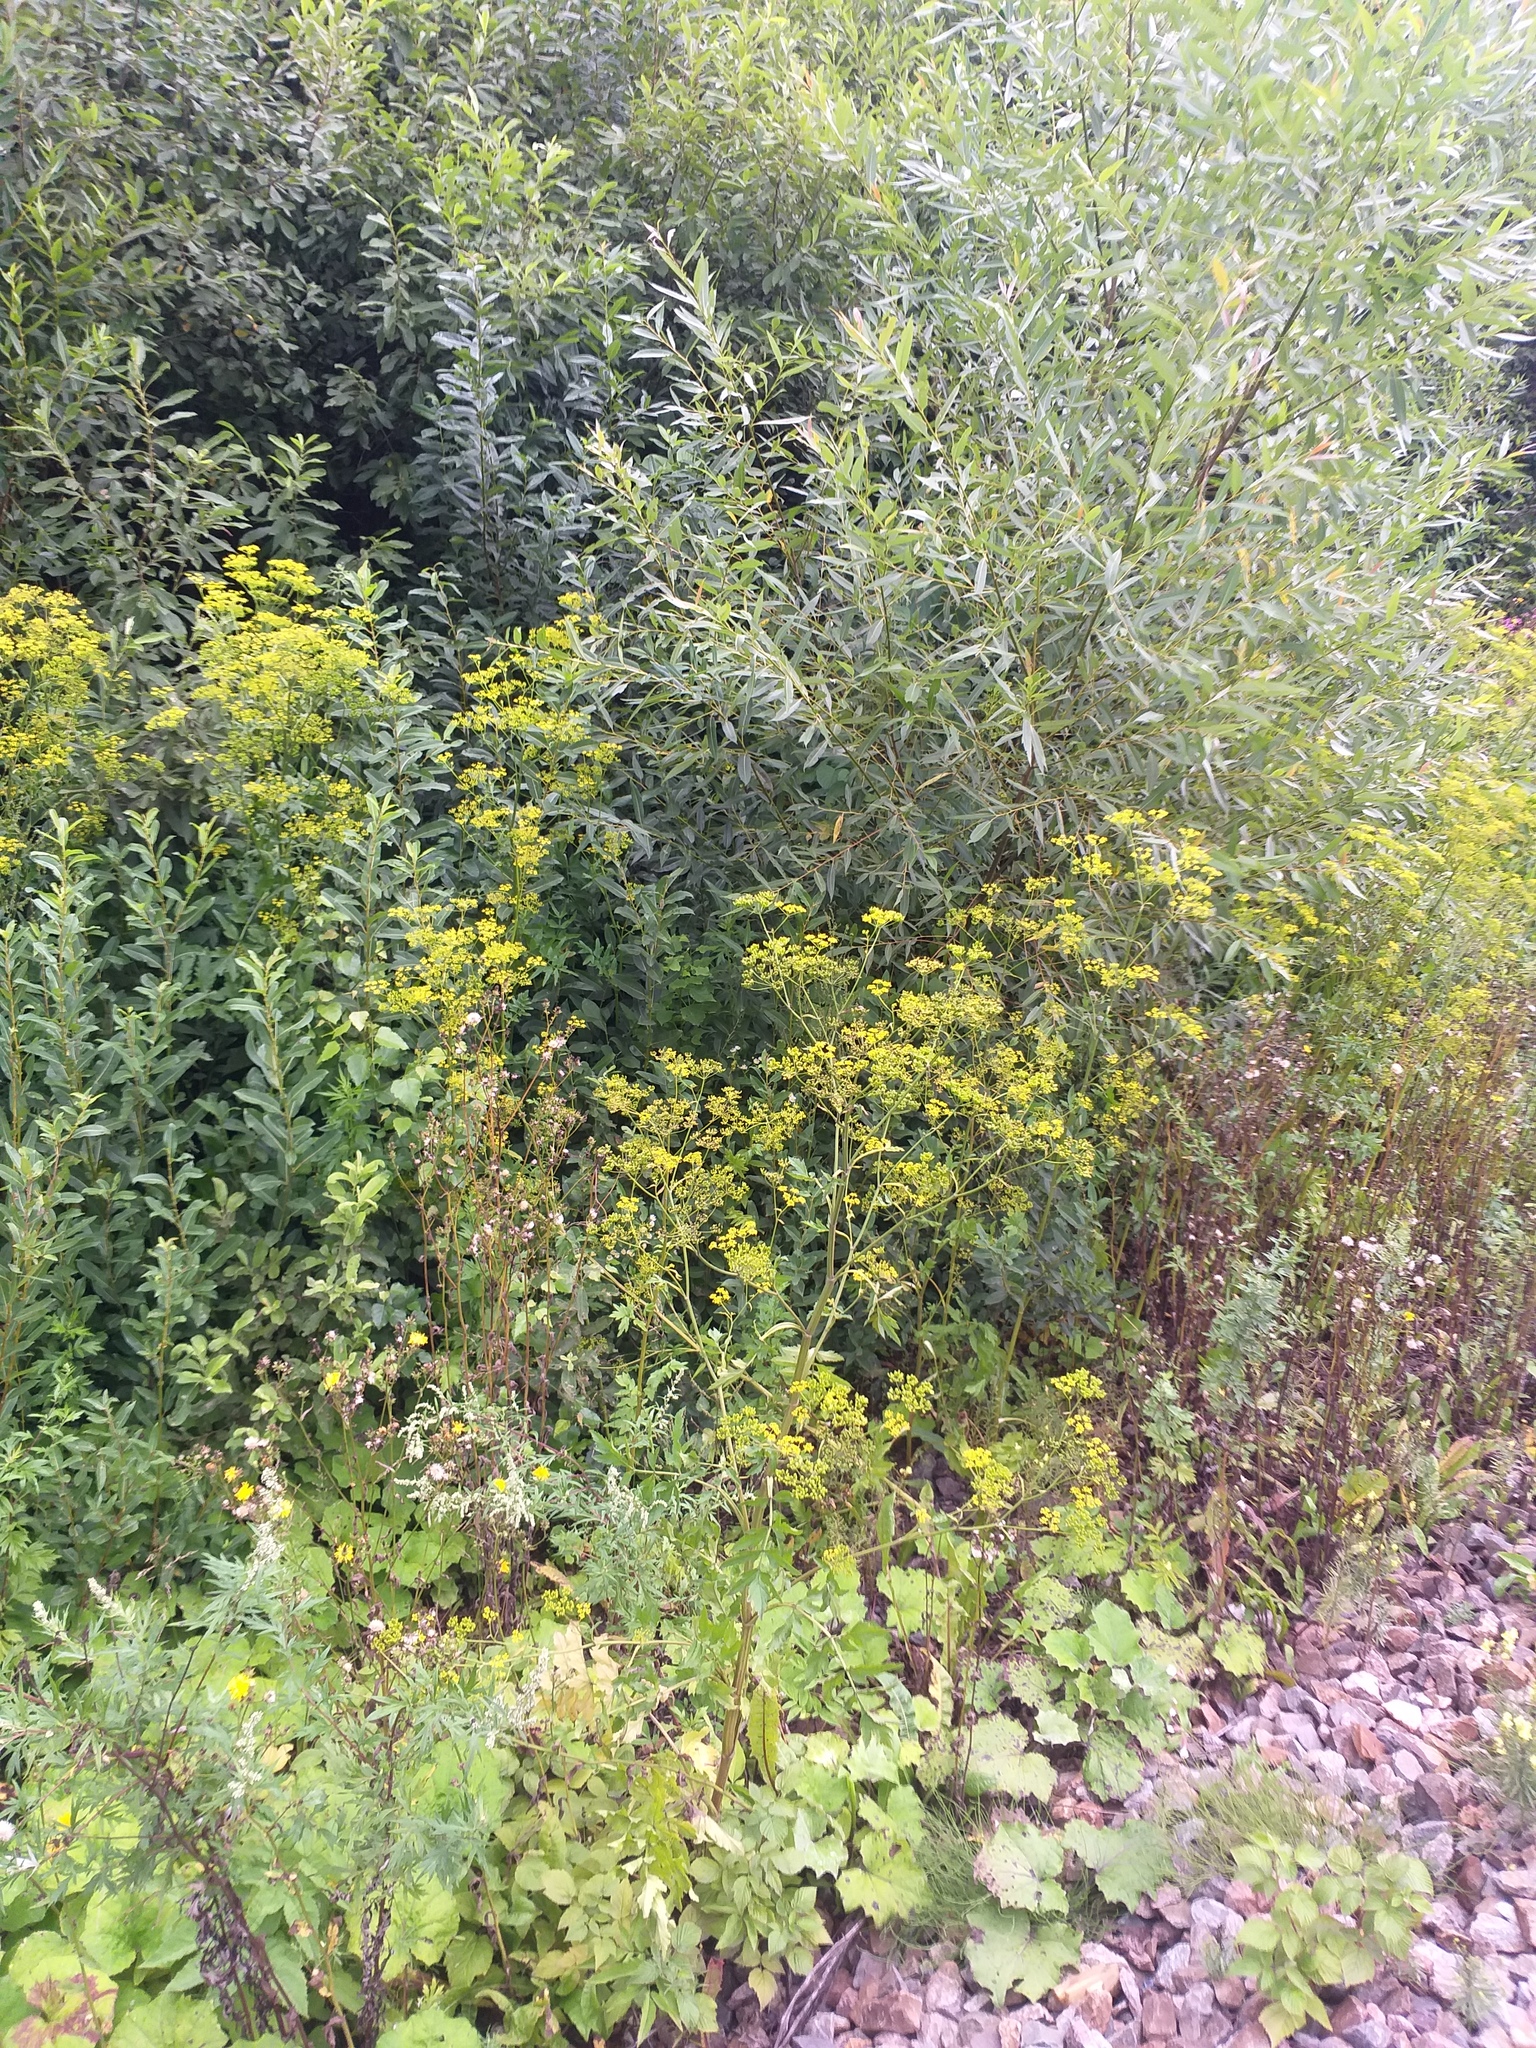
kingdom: Plantae
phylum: Tracheophyta
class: Magnoliopsida
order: Apiales
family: Apiaceae
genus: Pastinaca
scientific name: Pastinaca sativa
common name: Wild parsnip
